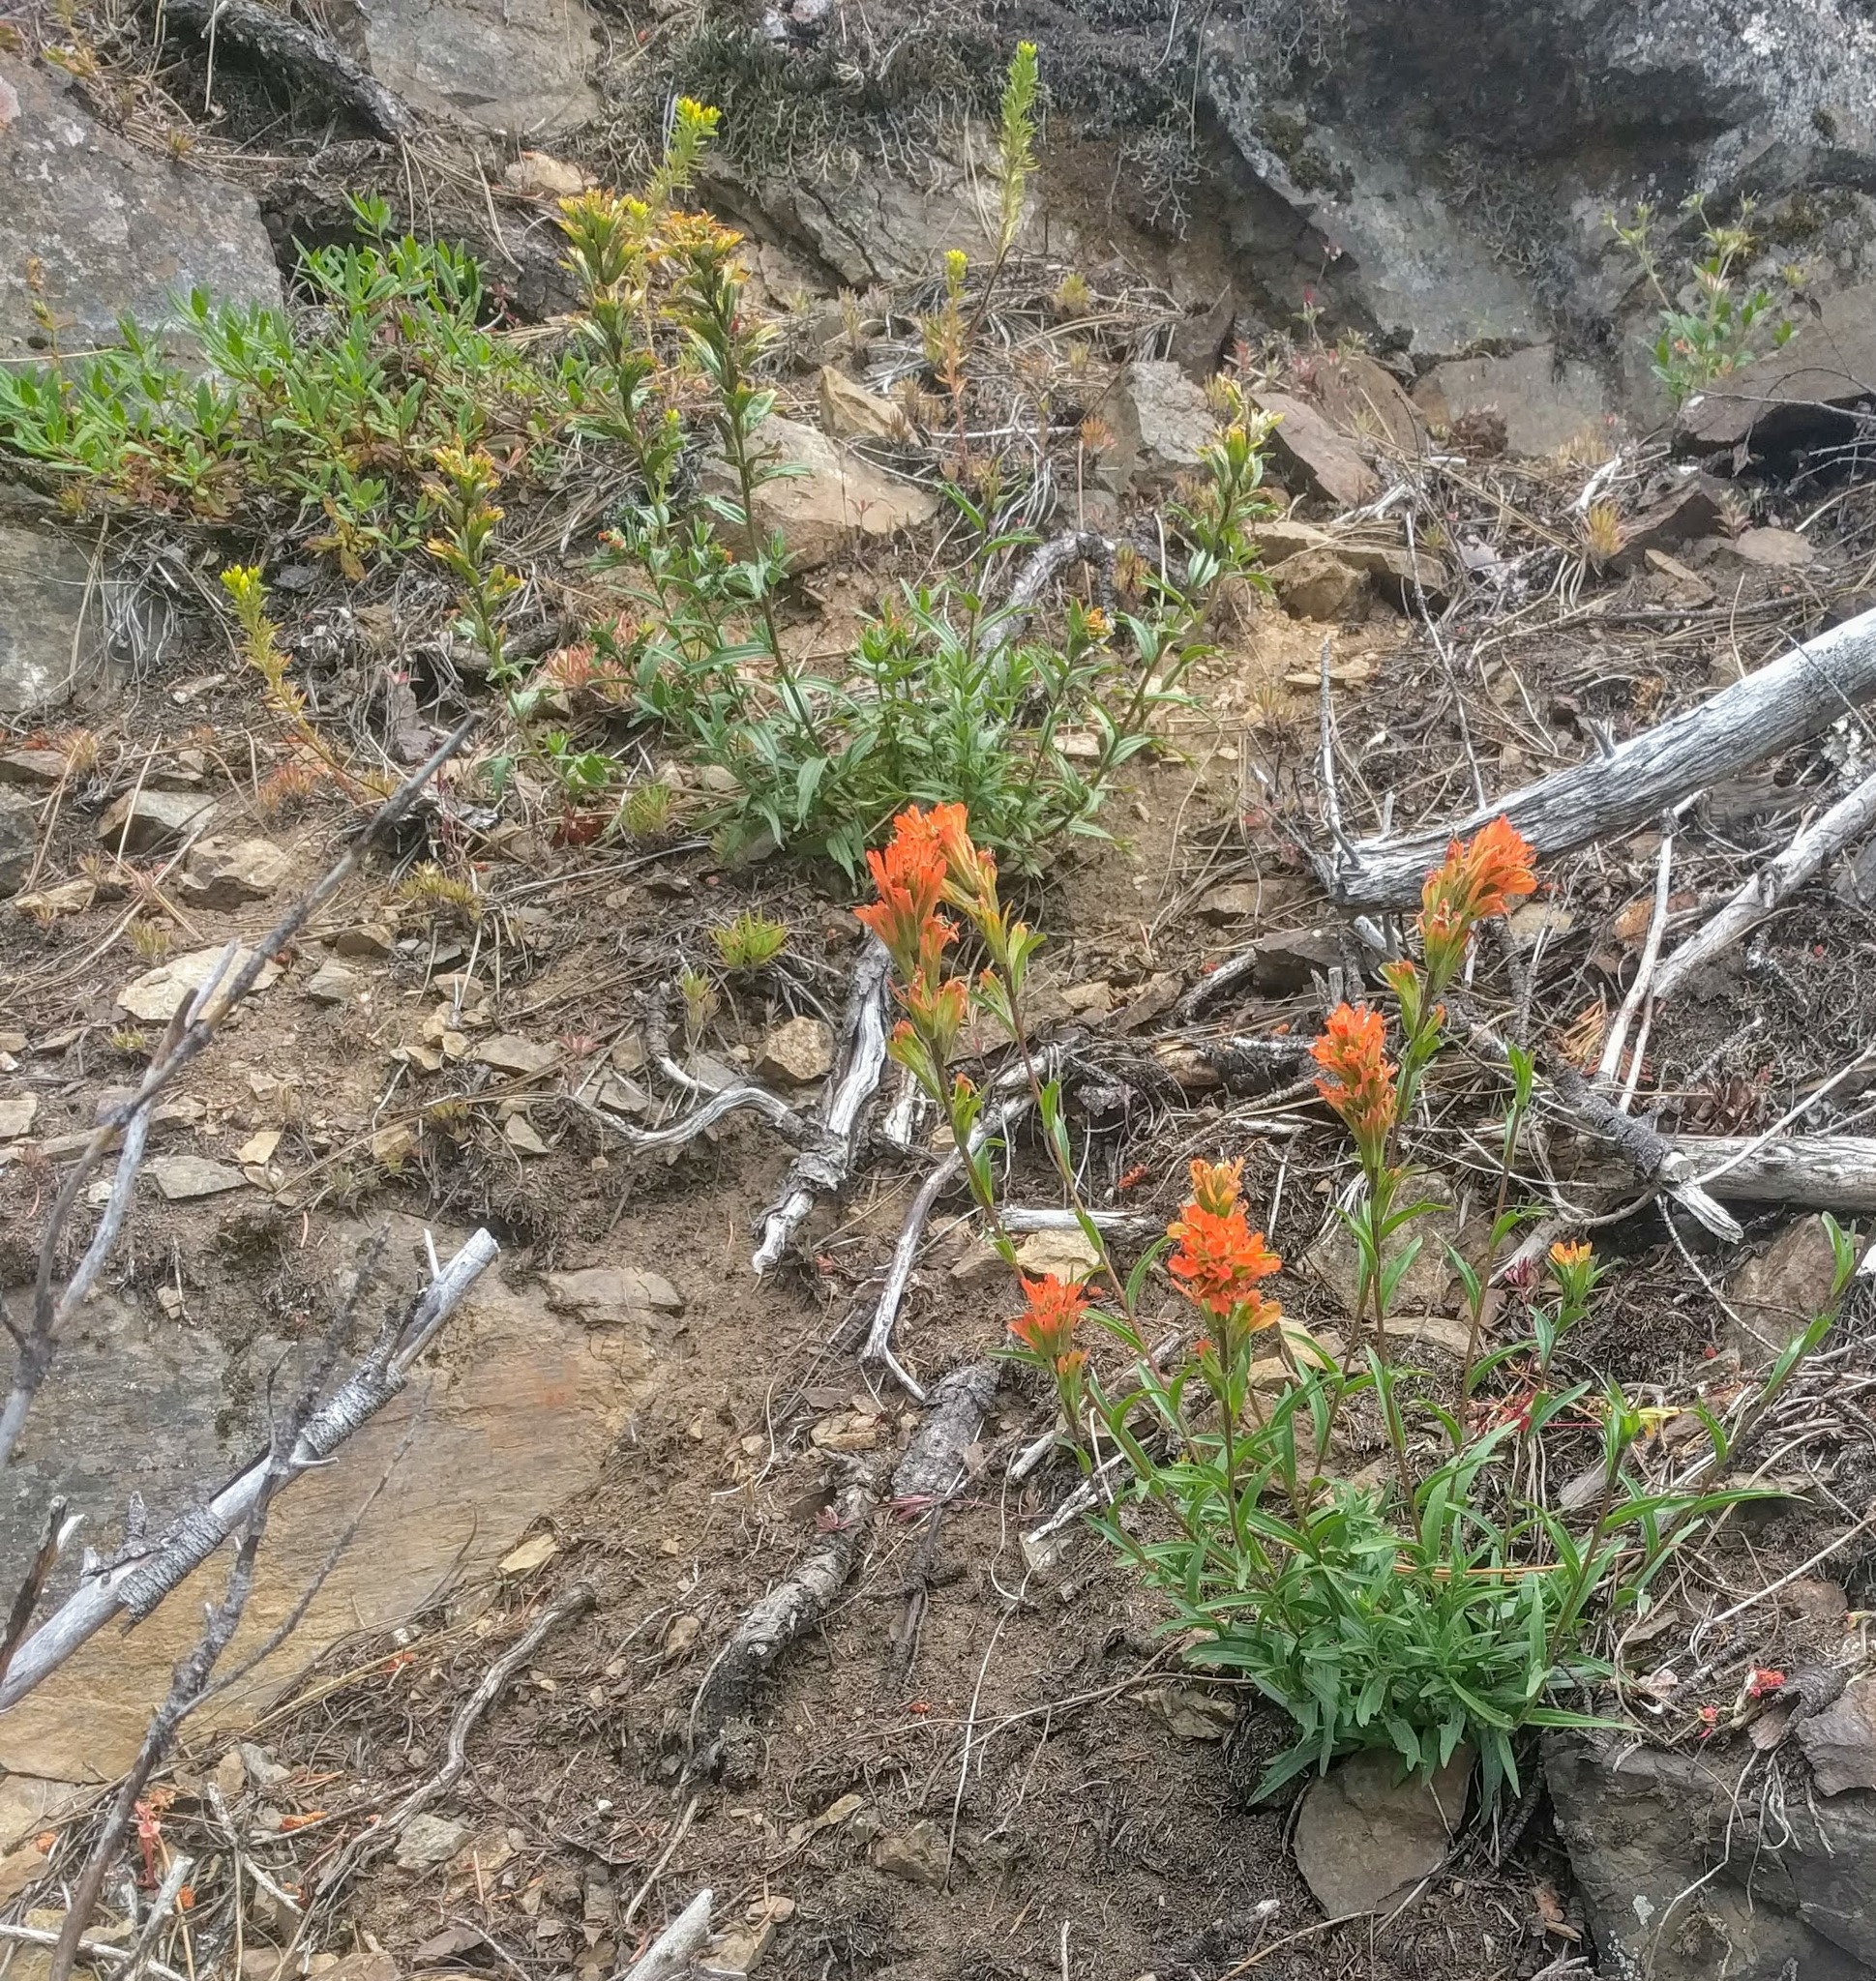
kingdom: Plantae
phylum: Tracheophyta
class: Magnoliopsida
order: Lamiales
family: Orobanchaceae
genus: Castilleja
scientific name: Castilleja hispida
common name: Bristly paintbrush
